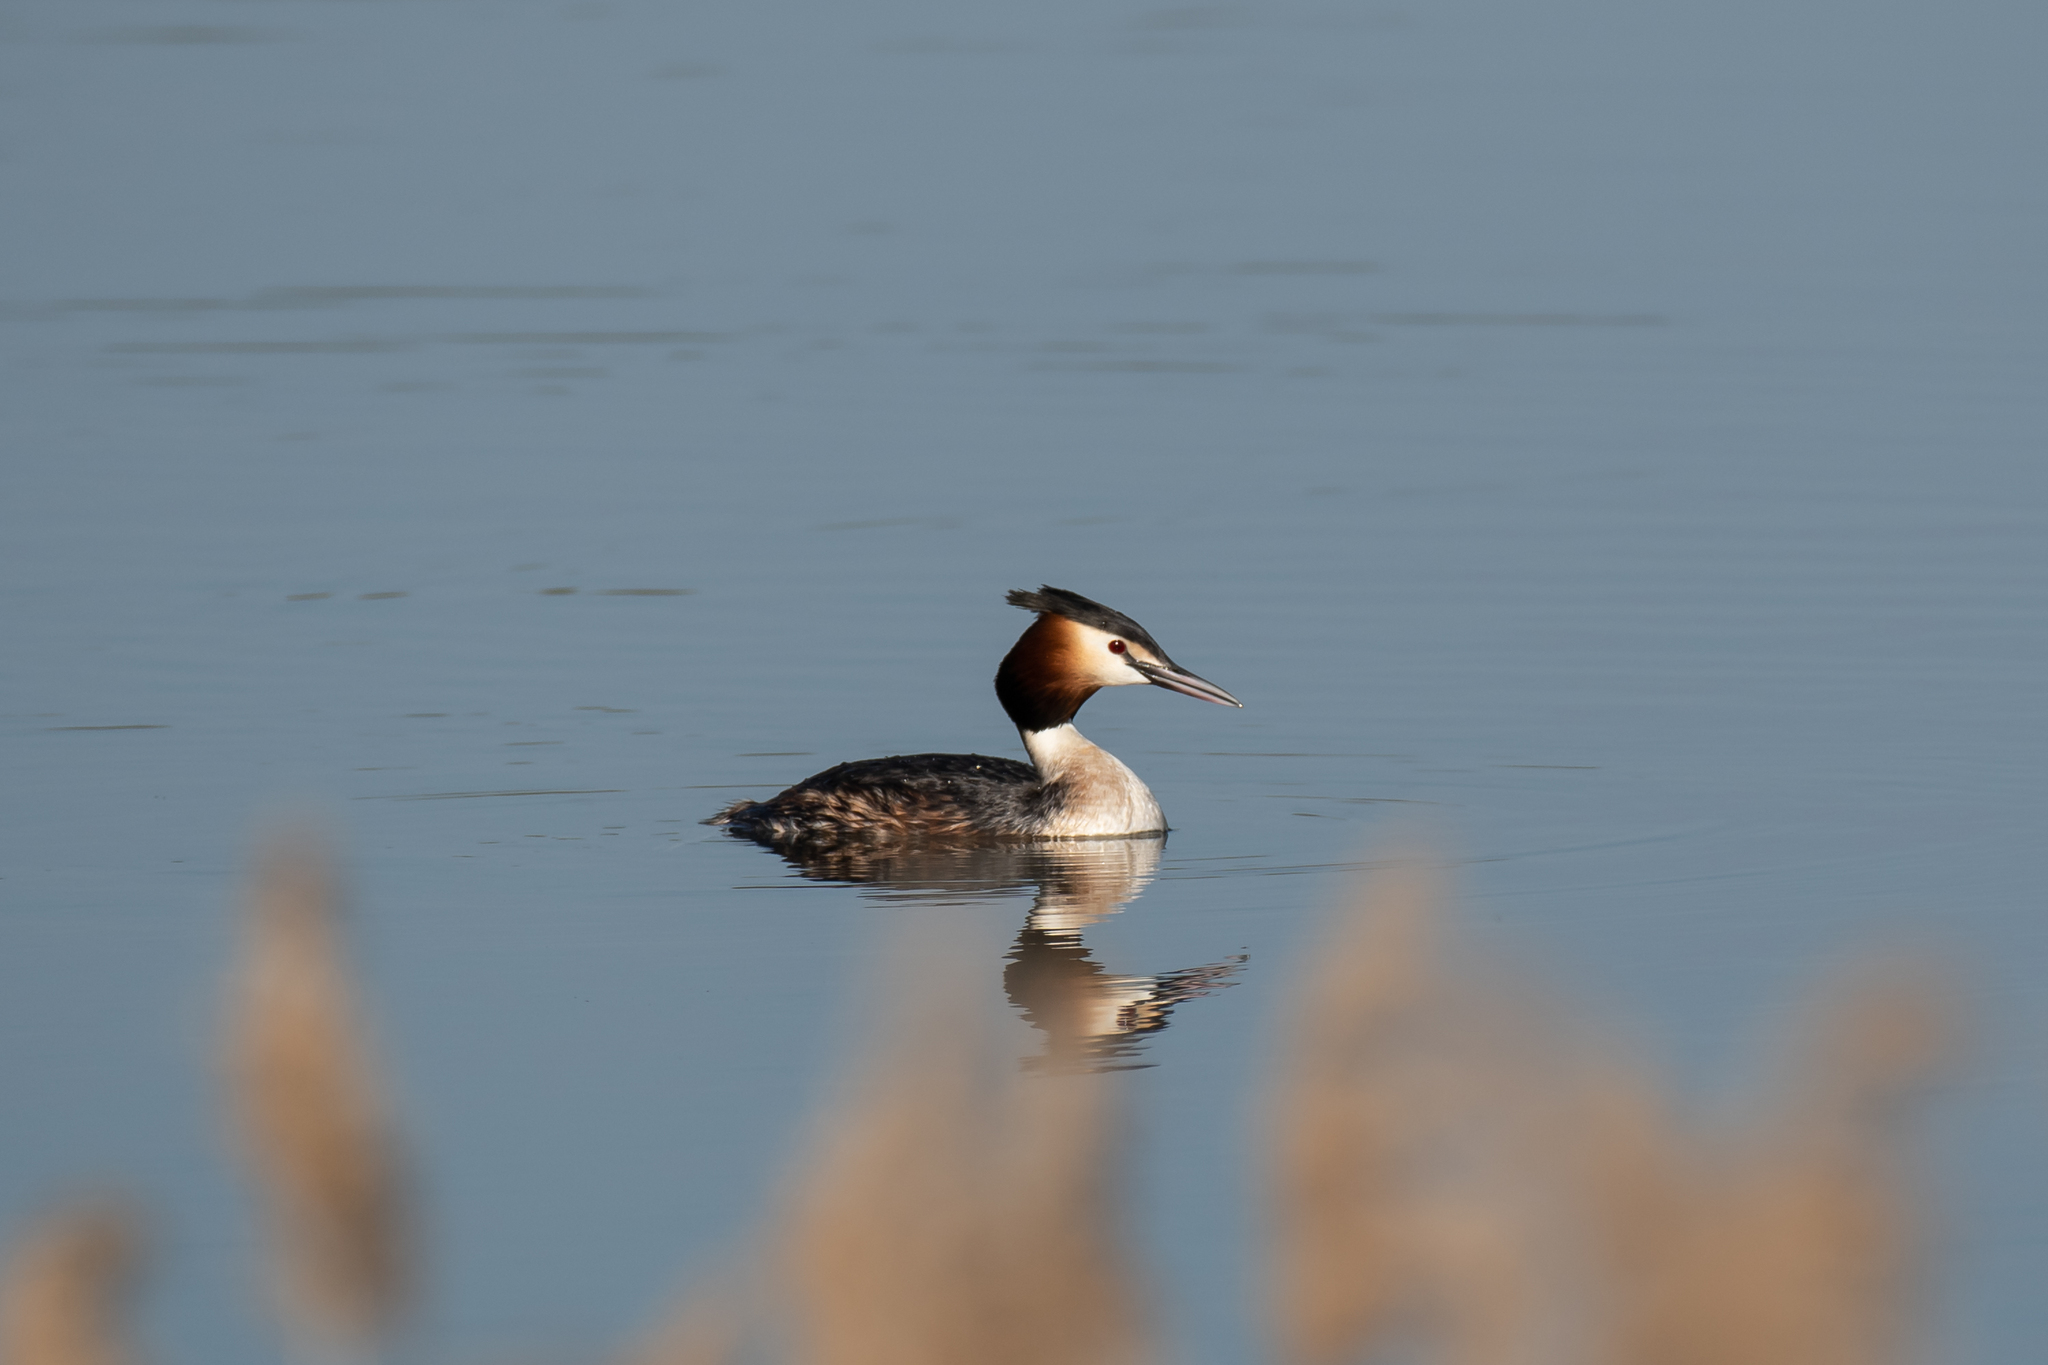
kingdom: Animalia
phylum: Chordata
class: Aves
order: Podicipediformes
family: Podicipedidae
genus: Podiceps
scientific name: Podiceps cristatus
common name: Great crested grebe
